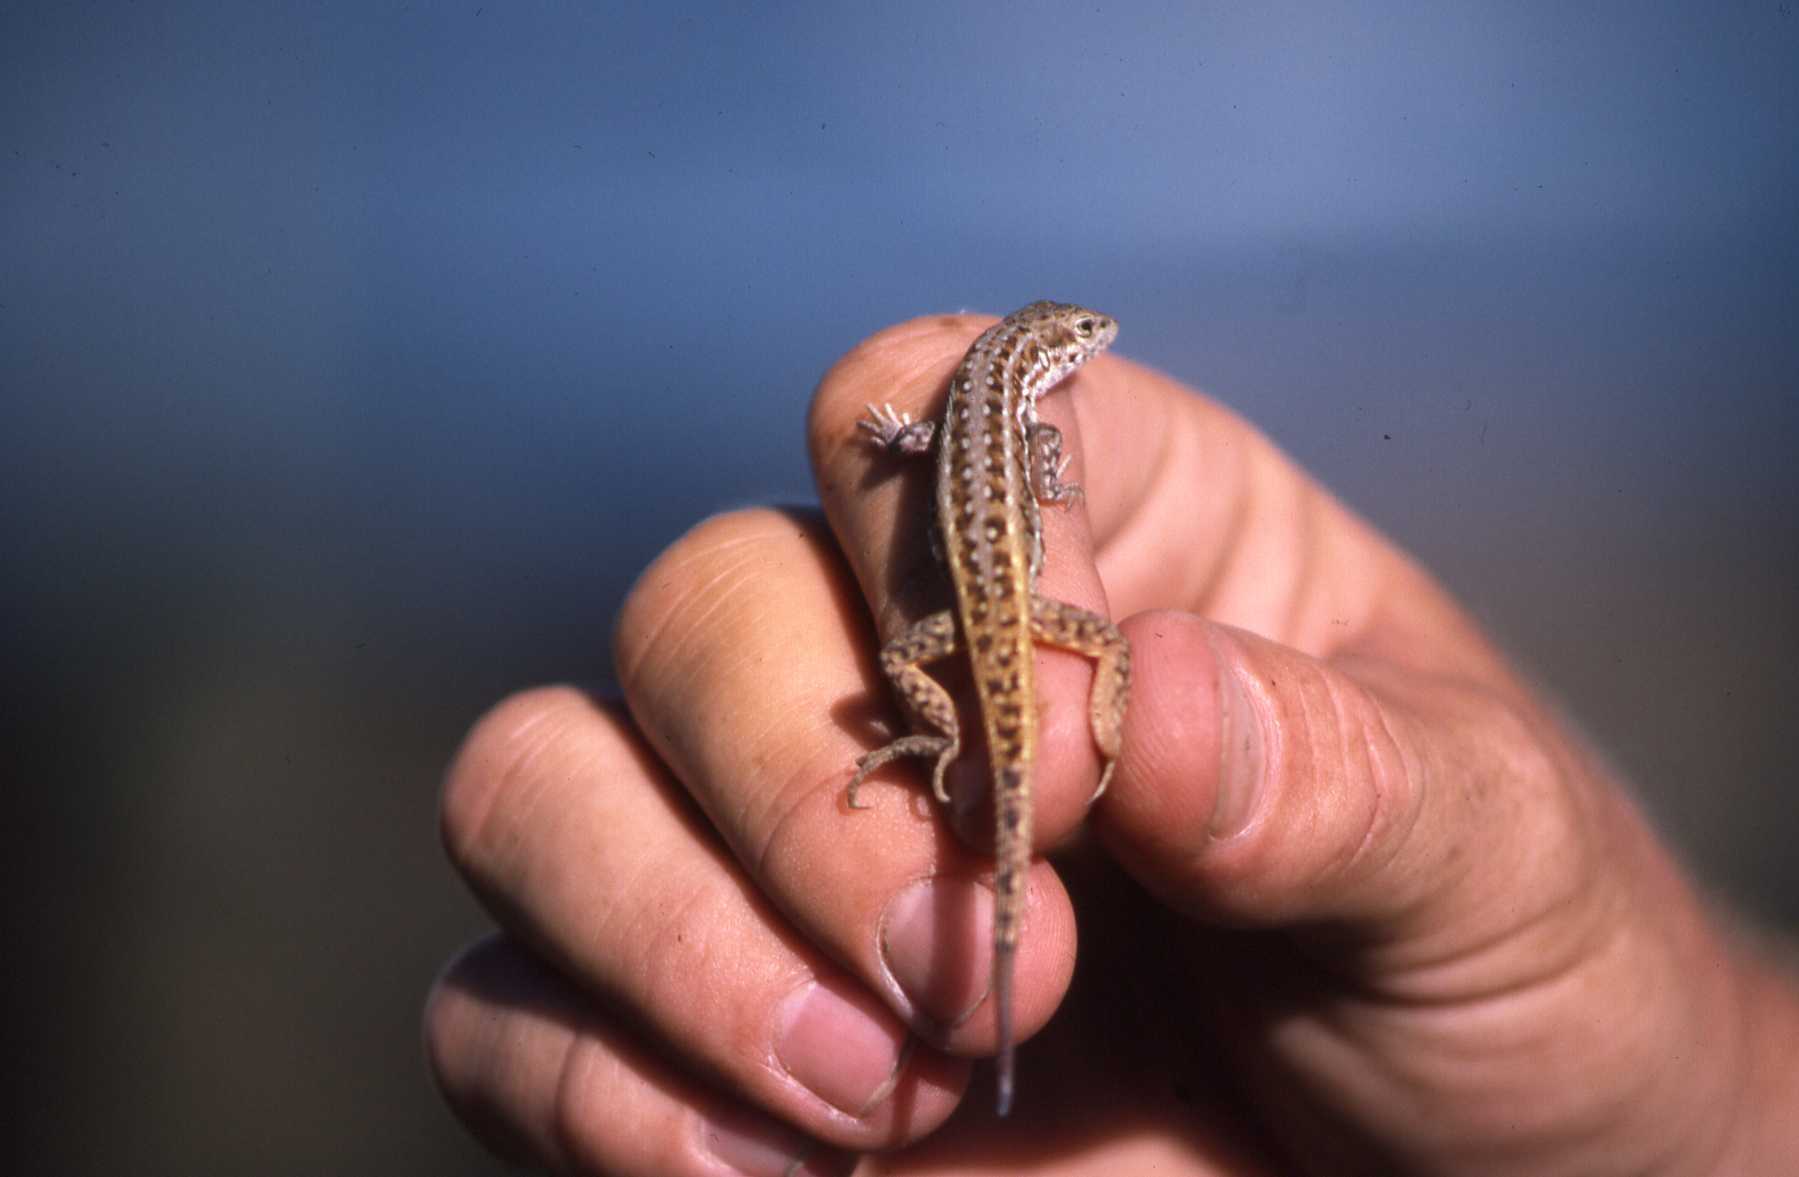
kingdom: Animalia
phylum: Chordata
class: Squamata
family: Lacertidae
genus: Meroles
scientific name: Meroles squamulosus
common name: Common desert lizard
